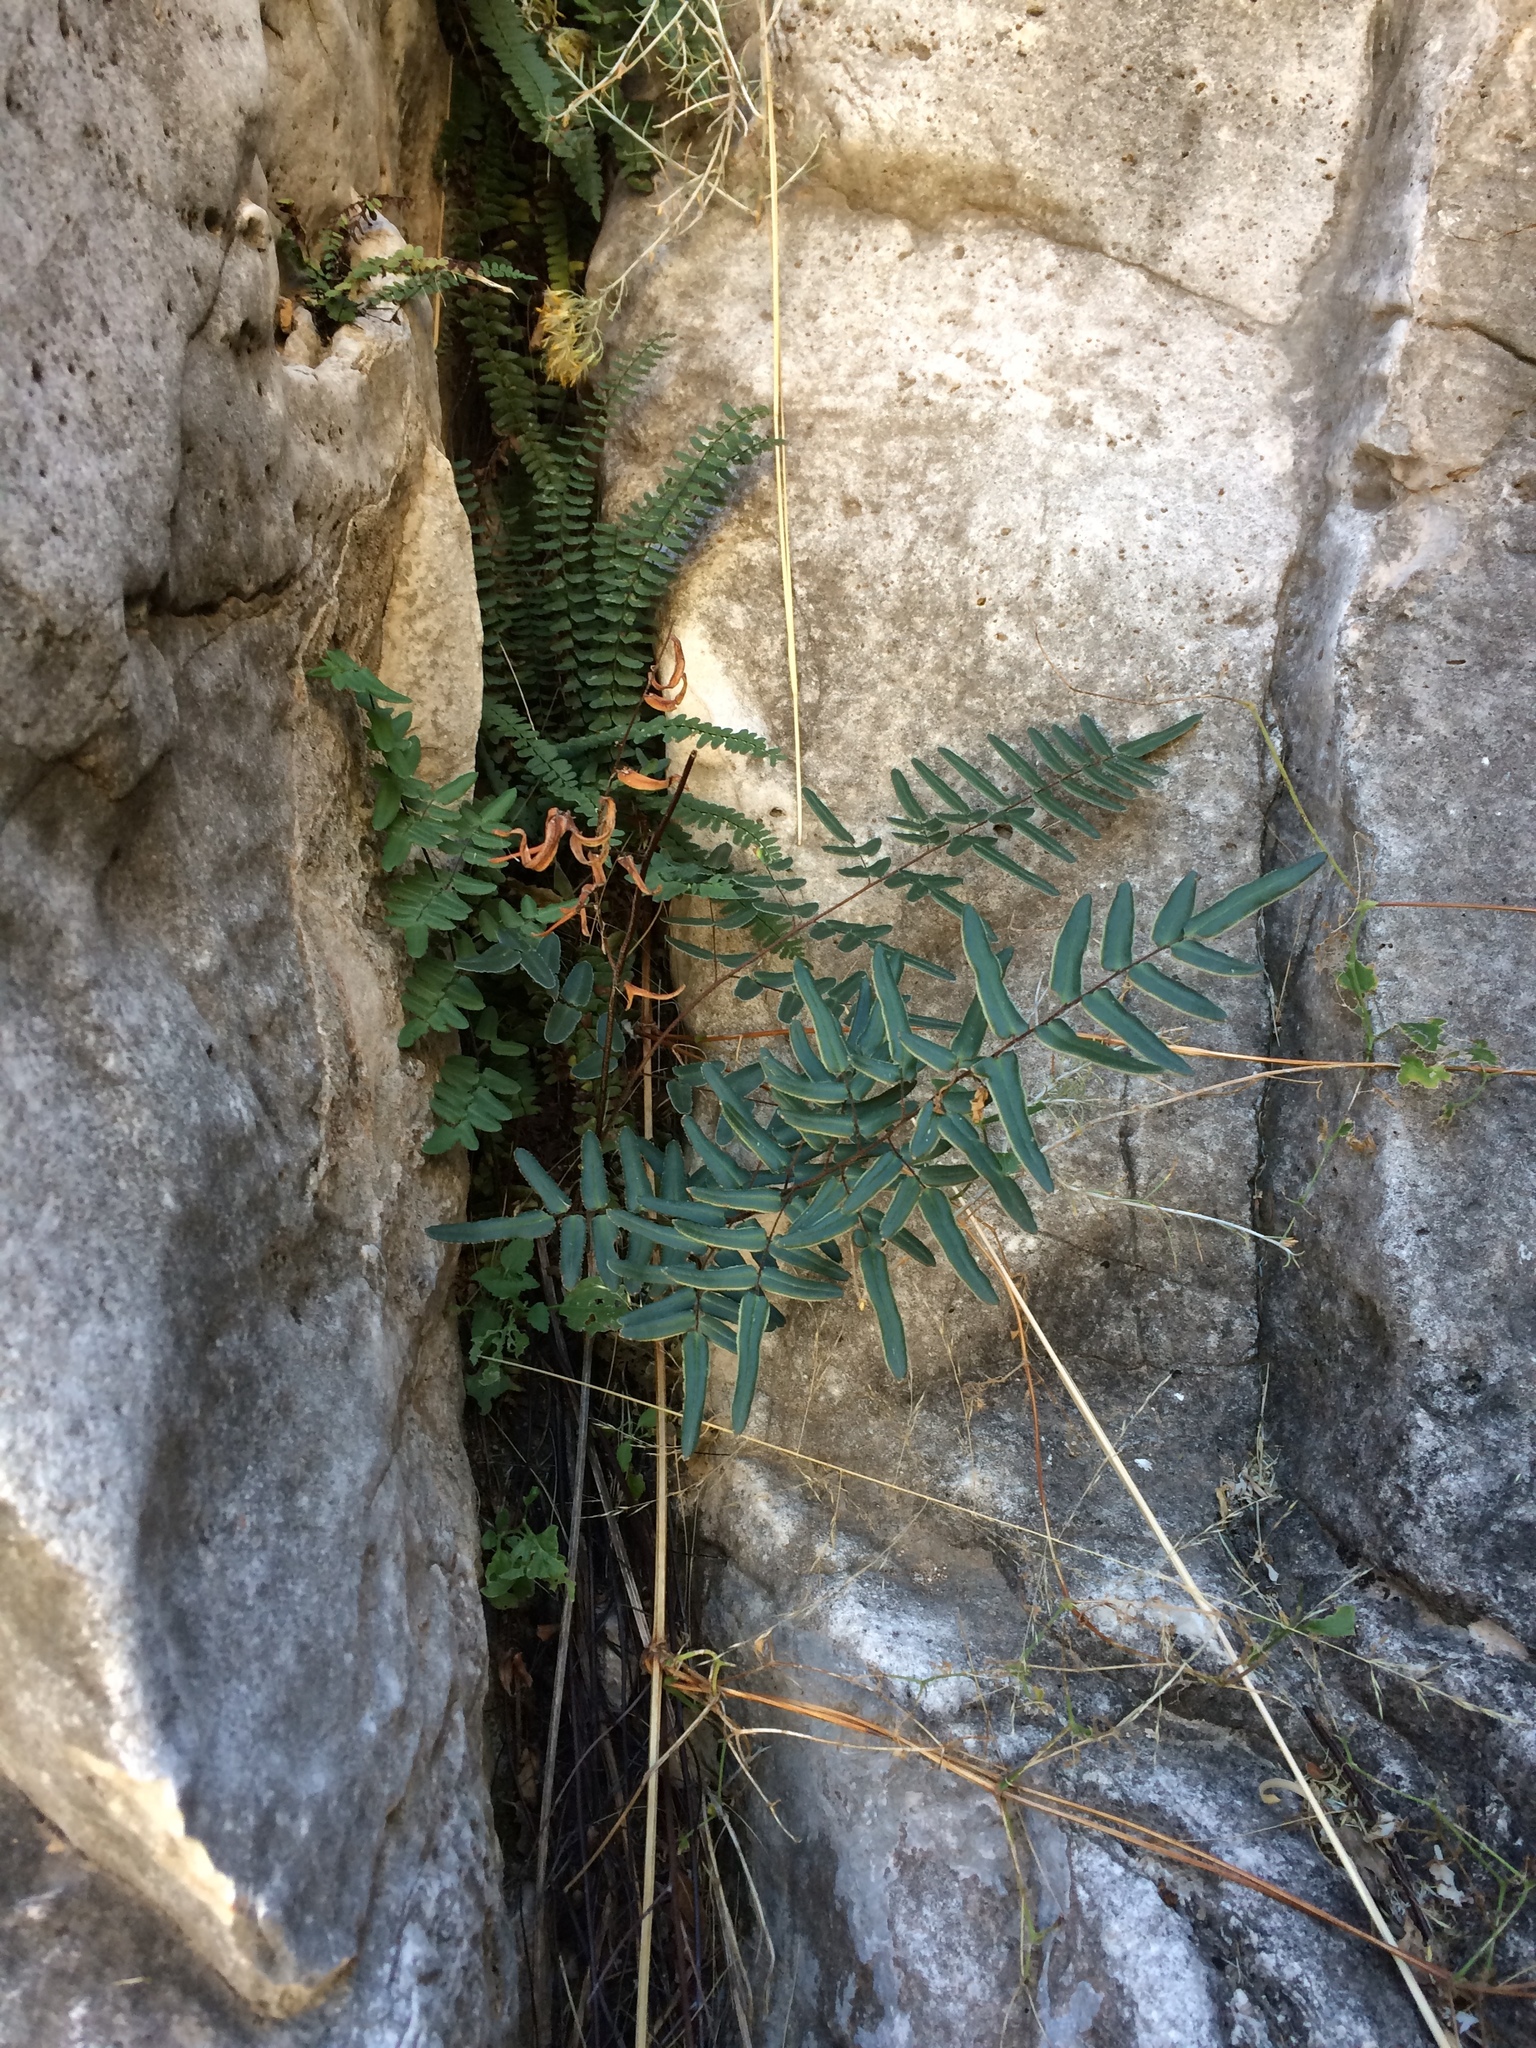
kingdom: Plantae
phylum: Tracheophyta
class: Polypodiopsida
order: Polypodiales
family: Pteridaceae
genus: Pellaea
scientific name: Pellaea atropurpurea
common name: Hairy cliffbrake
